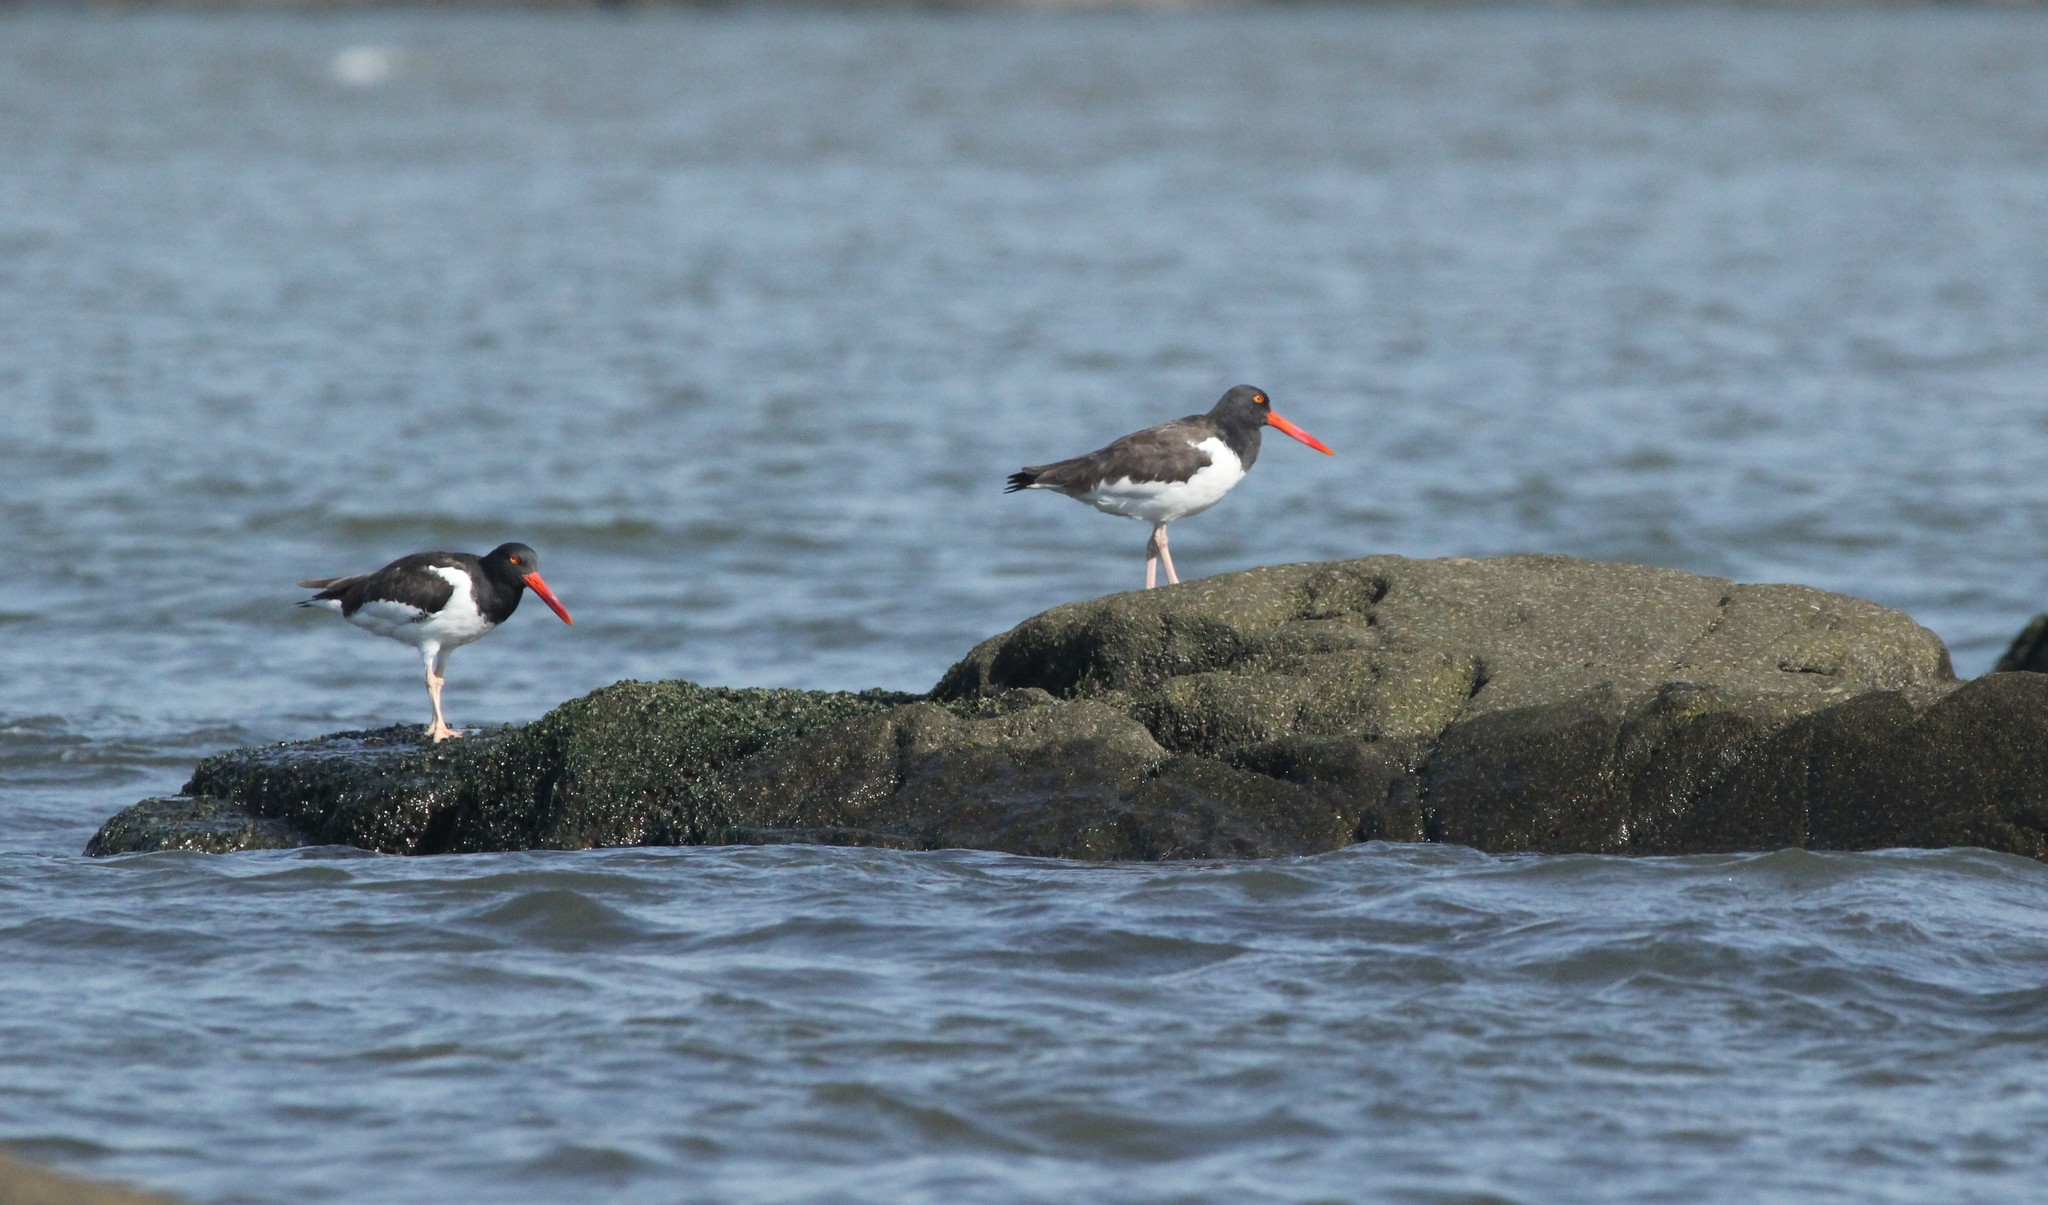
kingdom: Animalia
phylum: Chordata
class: Aves
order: Charadriiformes
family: Haematopodidae
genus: Haematopus
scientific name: Haematopus palliatus
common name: American oystercatcher
